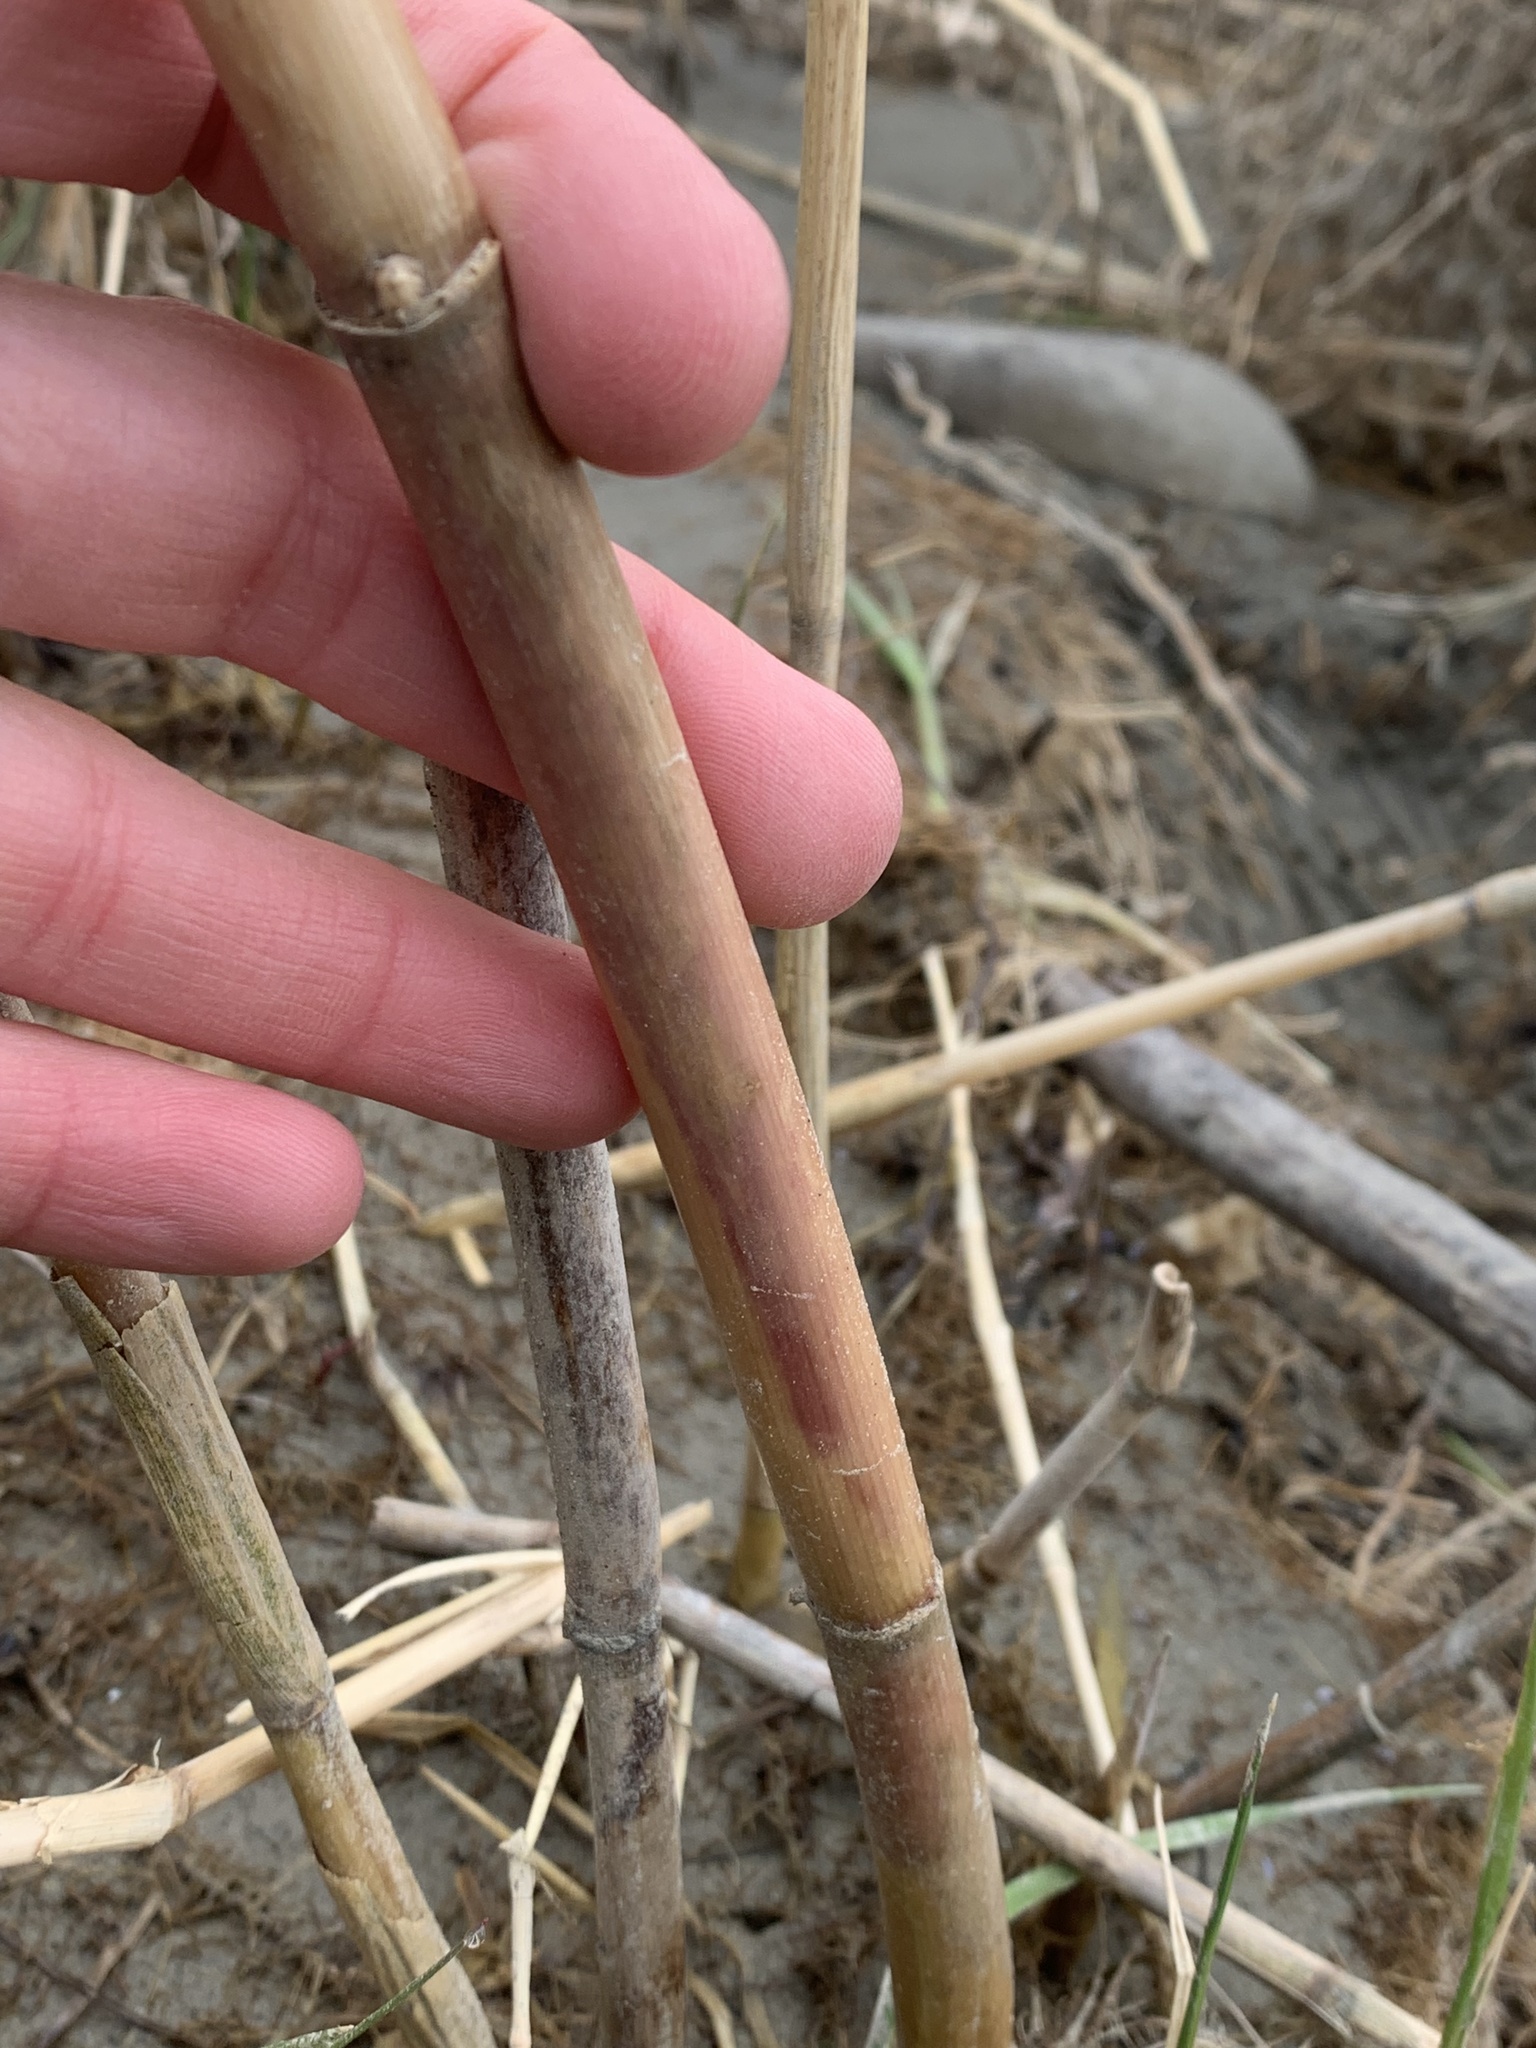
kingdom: Plantae
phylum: Tracheophyta
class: Liliopsida
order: Poales
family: Poaceae
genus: Phragmites
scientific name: Phragmites australis
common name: Common reed
